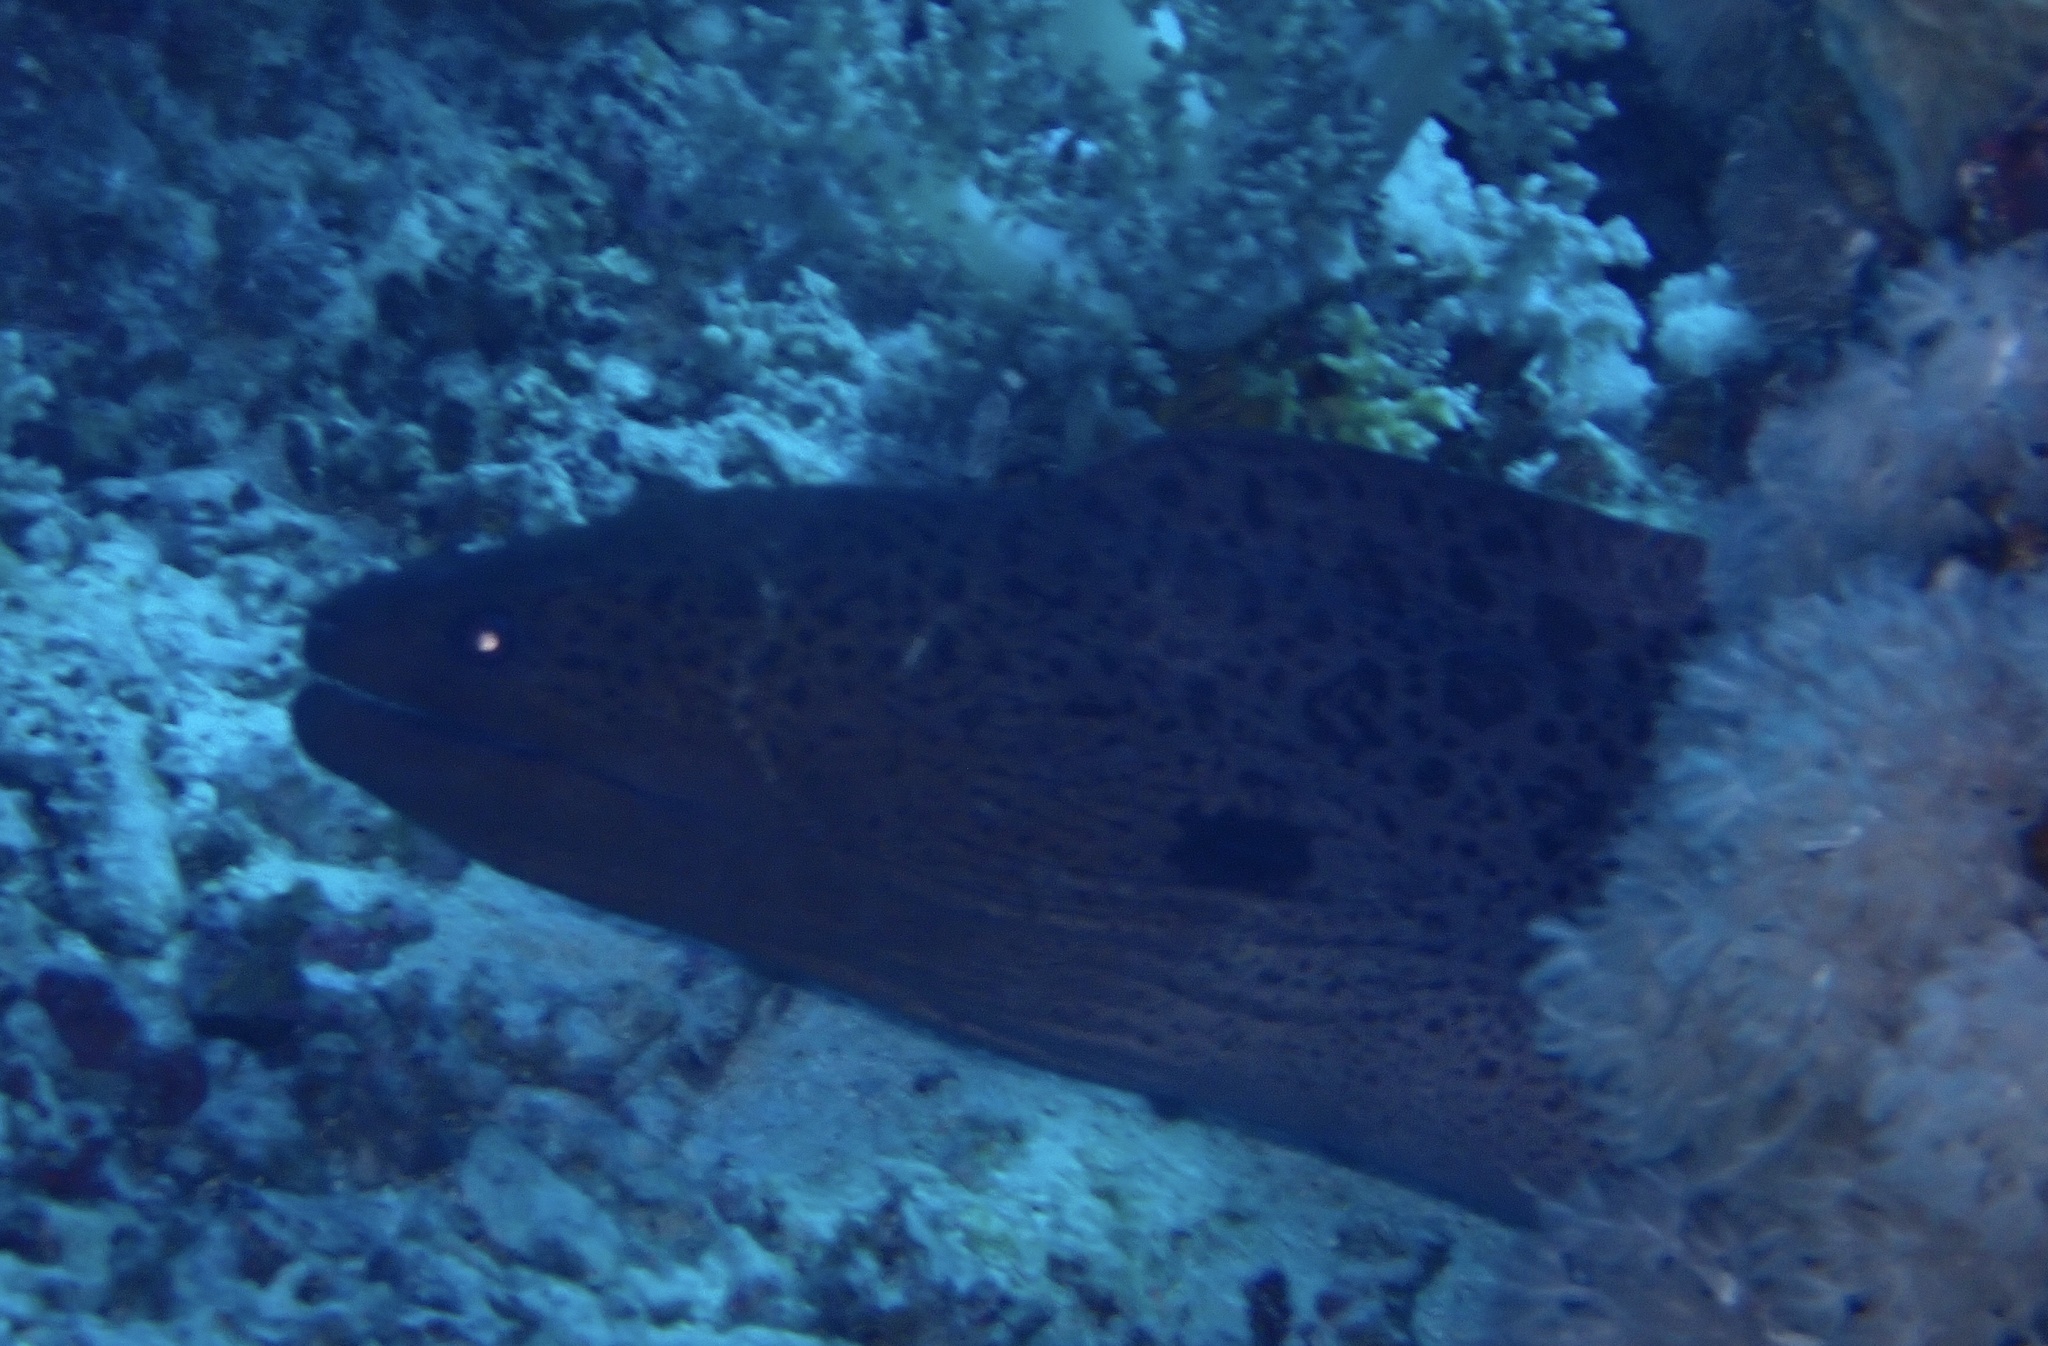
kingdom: Animalia
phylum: Chordata
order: Anguilliformes
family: Muraenidae
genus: Gymnothorax
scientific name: Gymnothorax javanicus
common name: Giant moray
